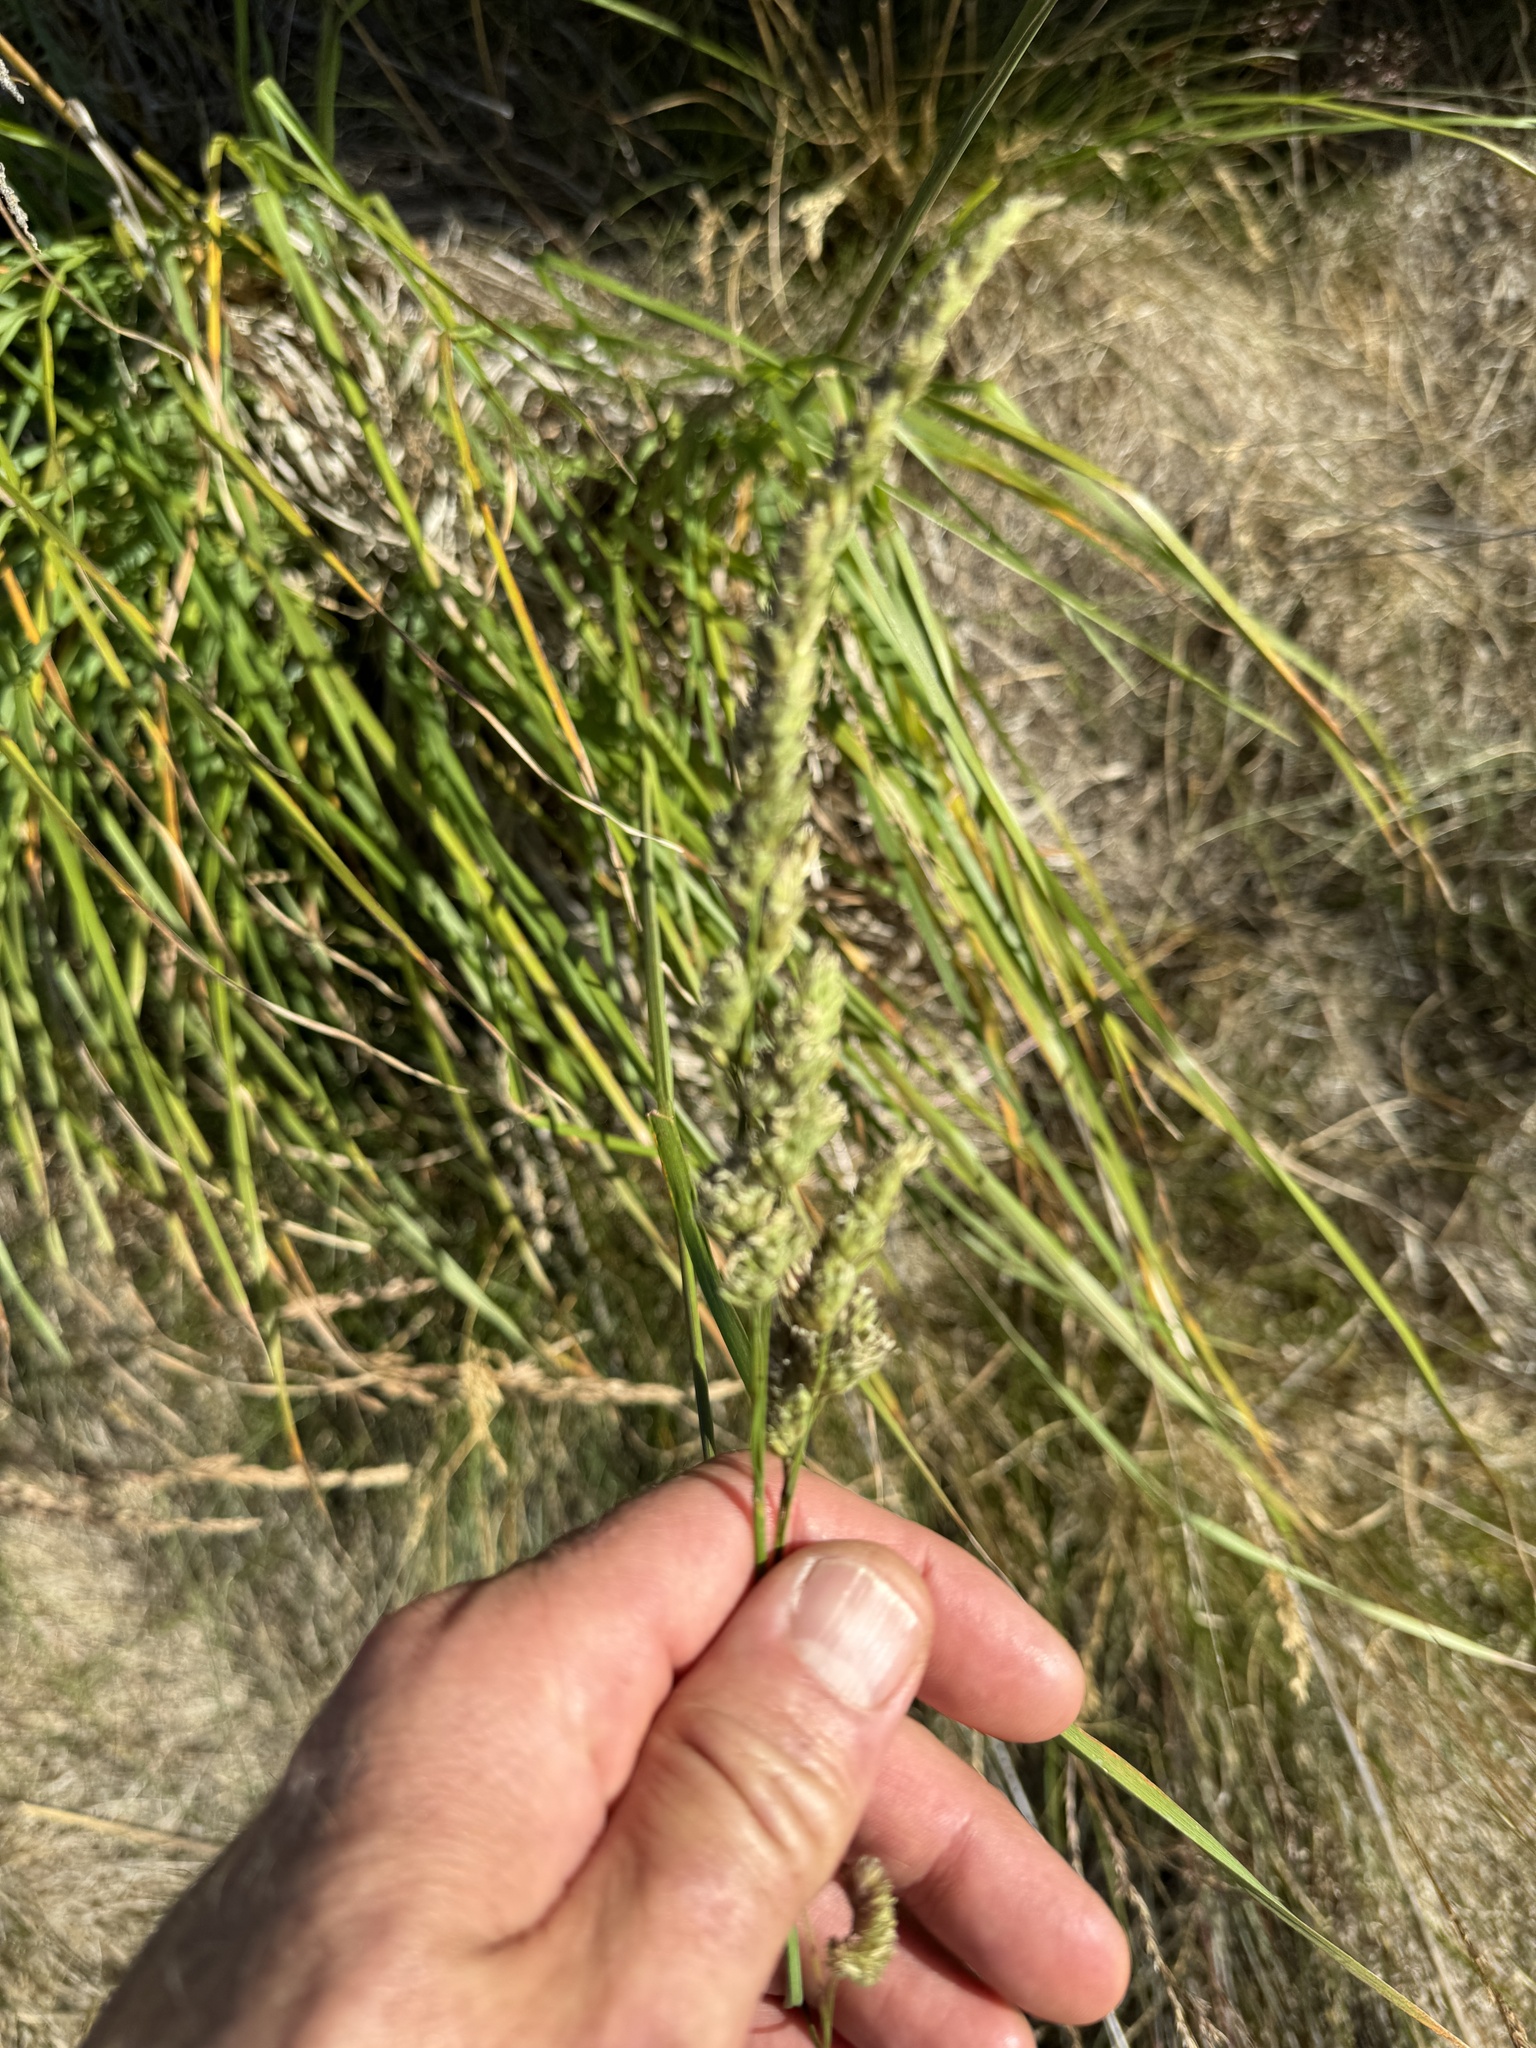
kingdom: Plantae
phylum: Tracheophyta
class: Liliopsida
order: Poales
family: Poaceae
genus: Dactylis
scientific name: Dactylis glomerata
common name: Orchardgrass
